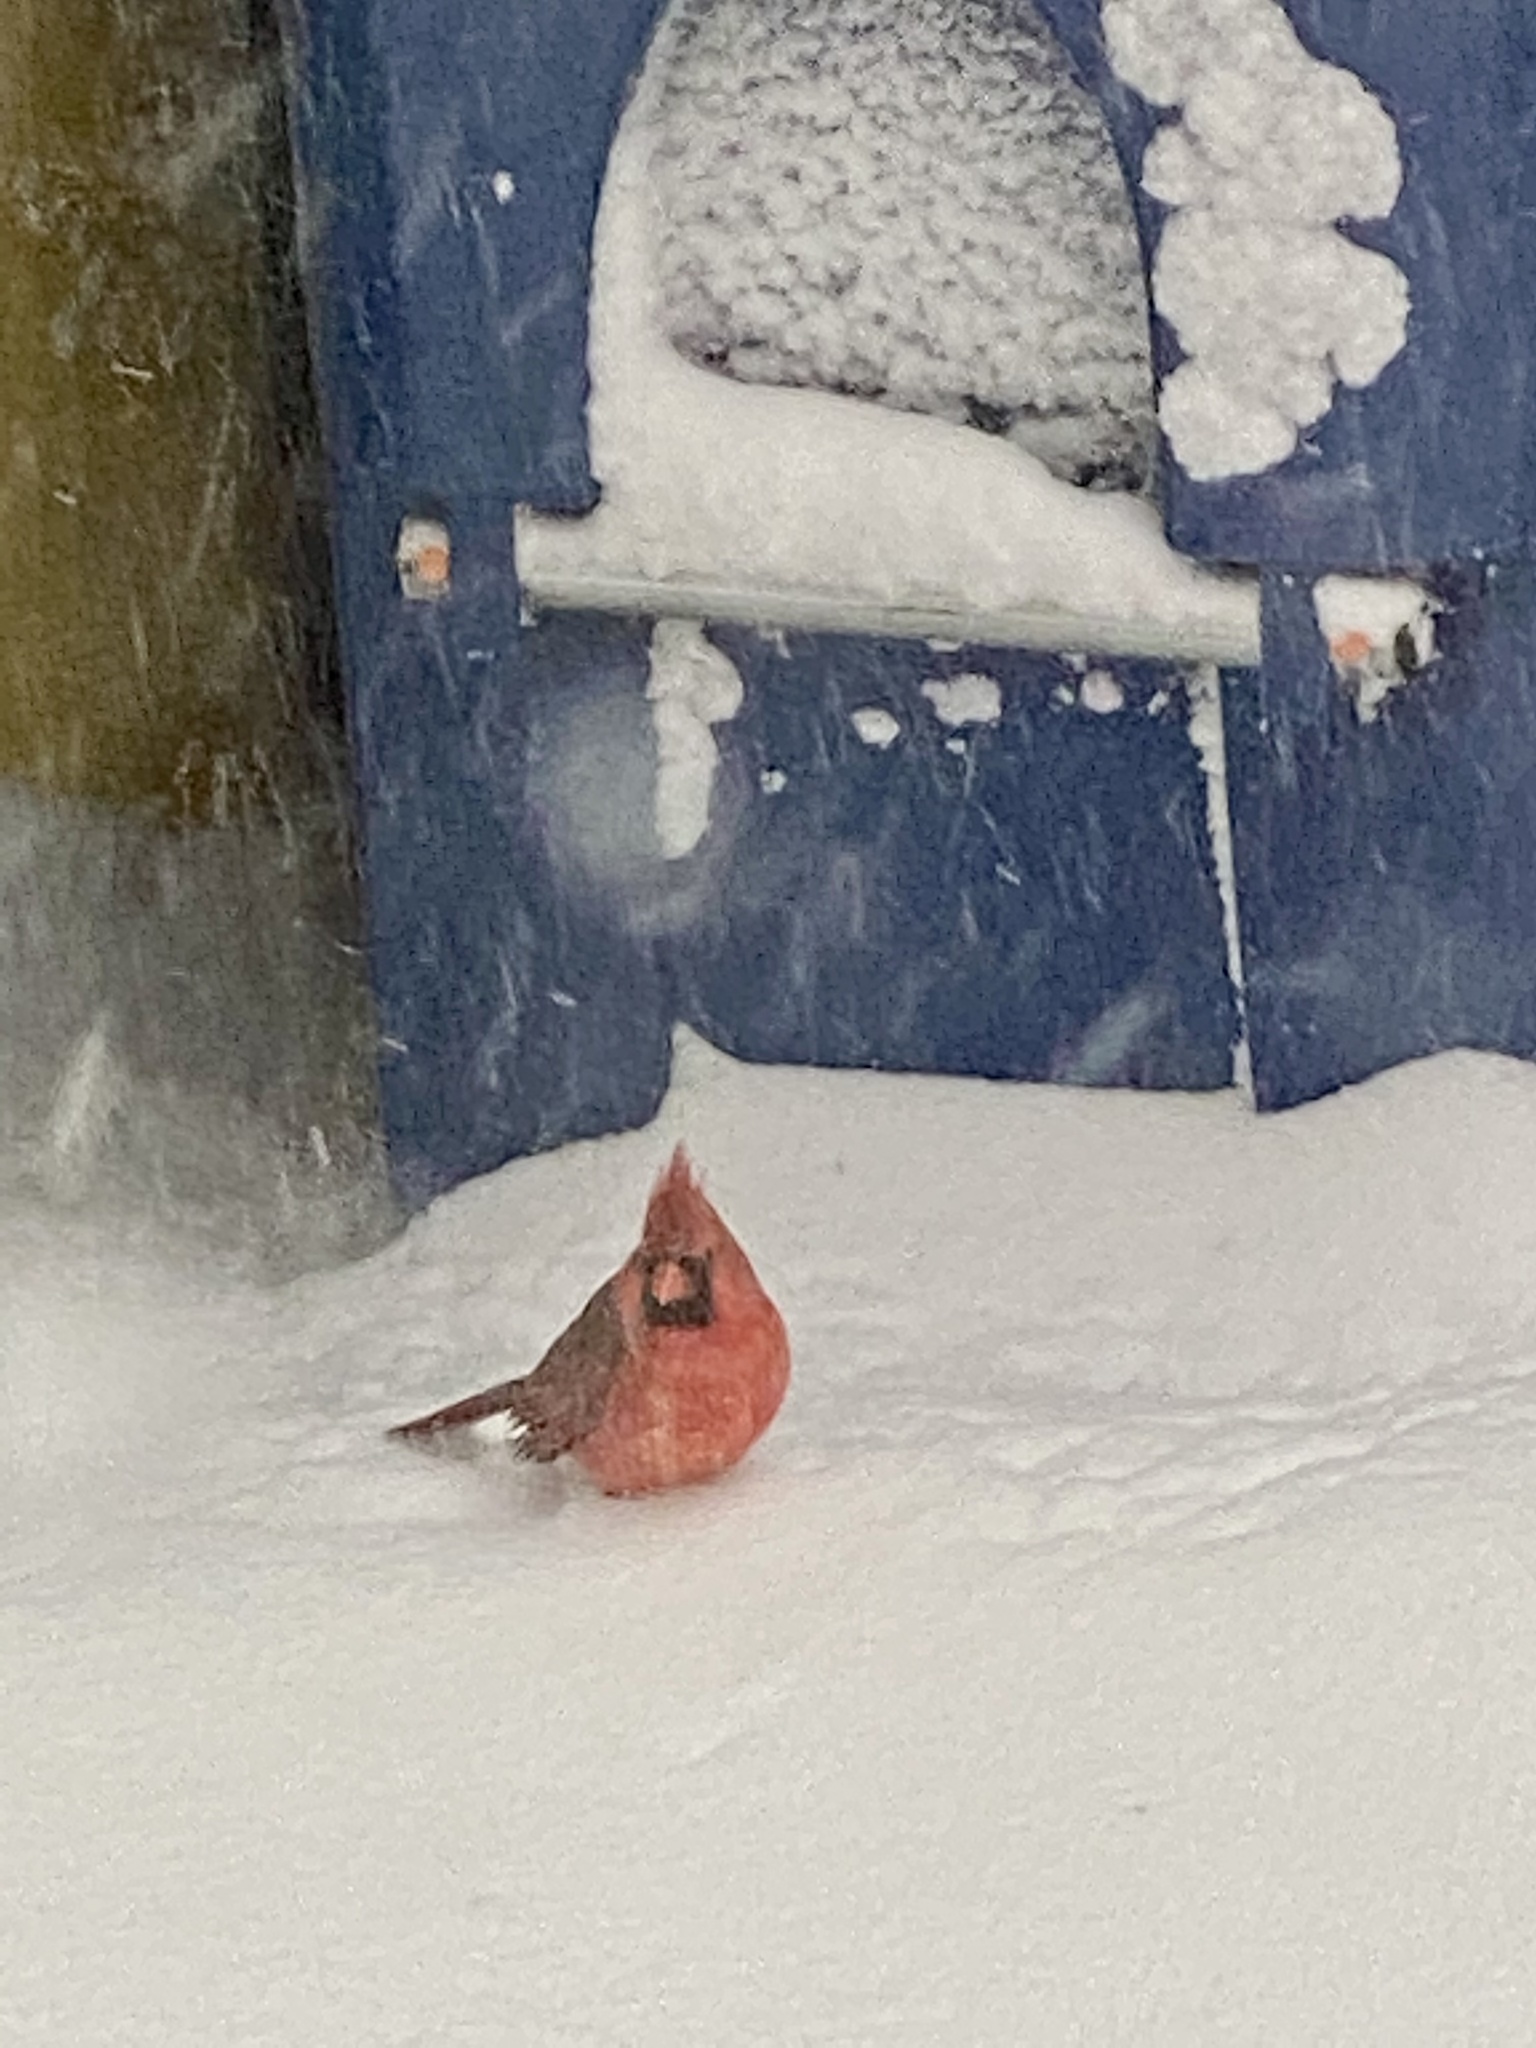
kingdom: Animalia
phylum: Chordata
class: Aves
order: Passeriformes
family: Cardinalidae
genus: Cardinalis
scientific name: Cardinalis cardinalis
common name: Northern cardinal
